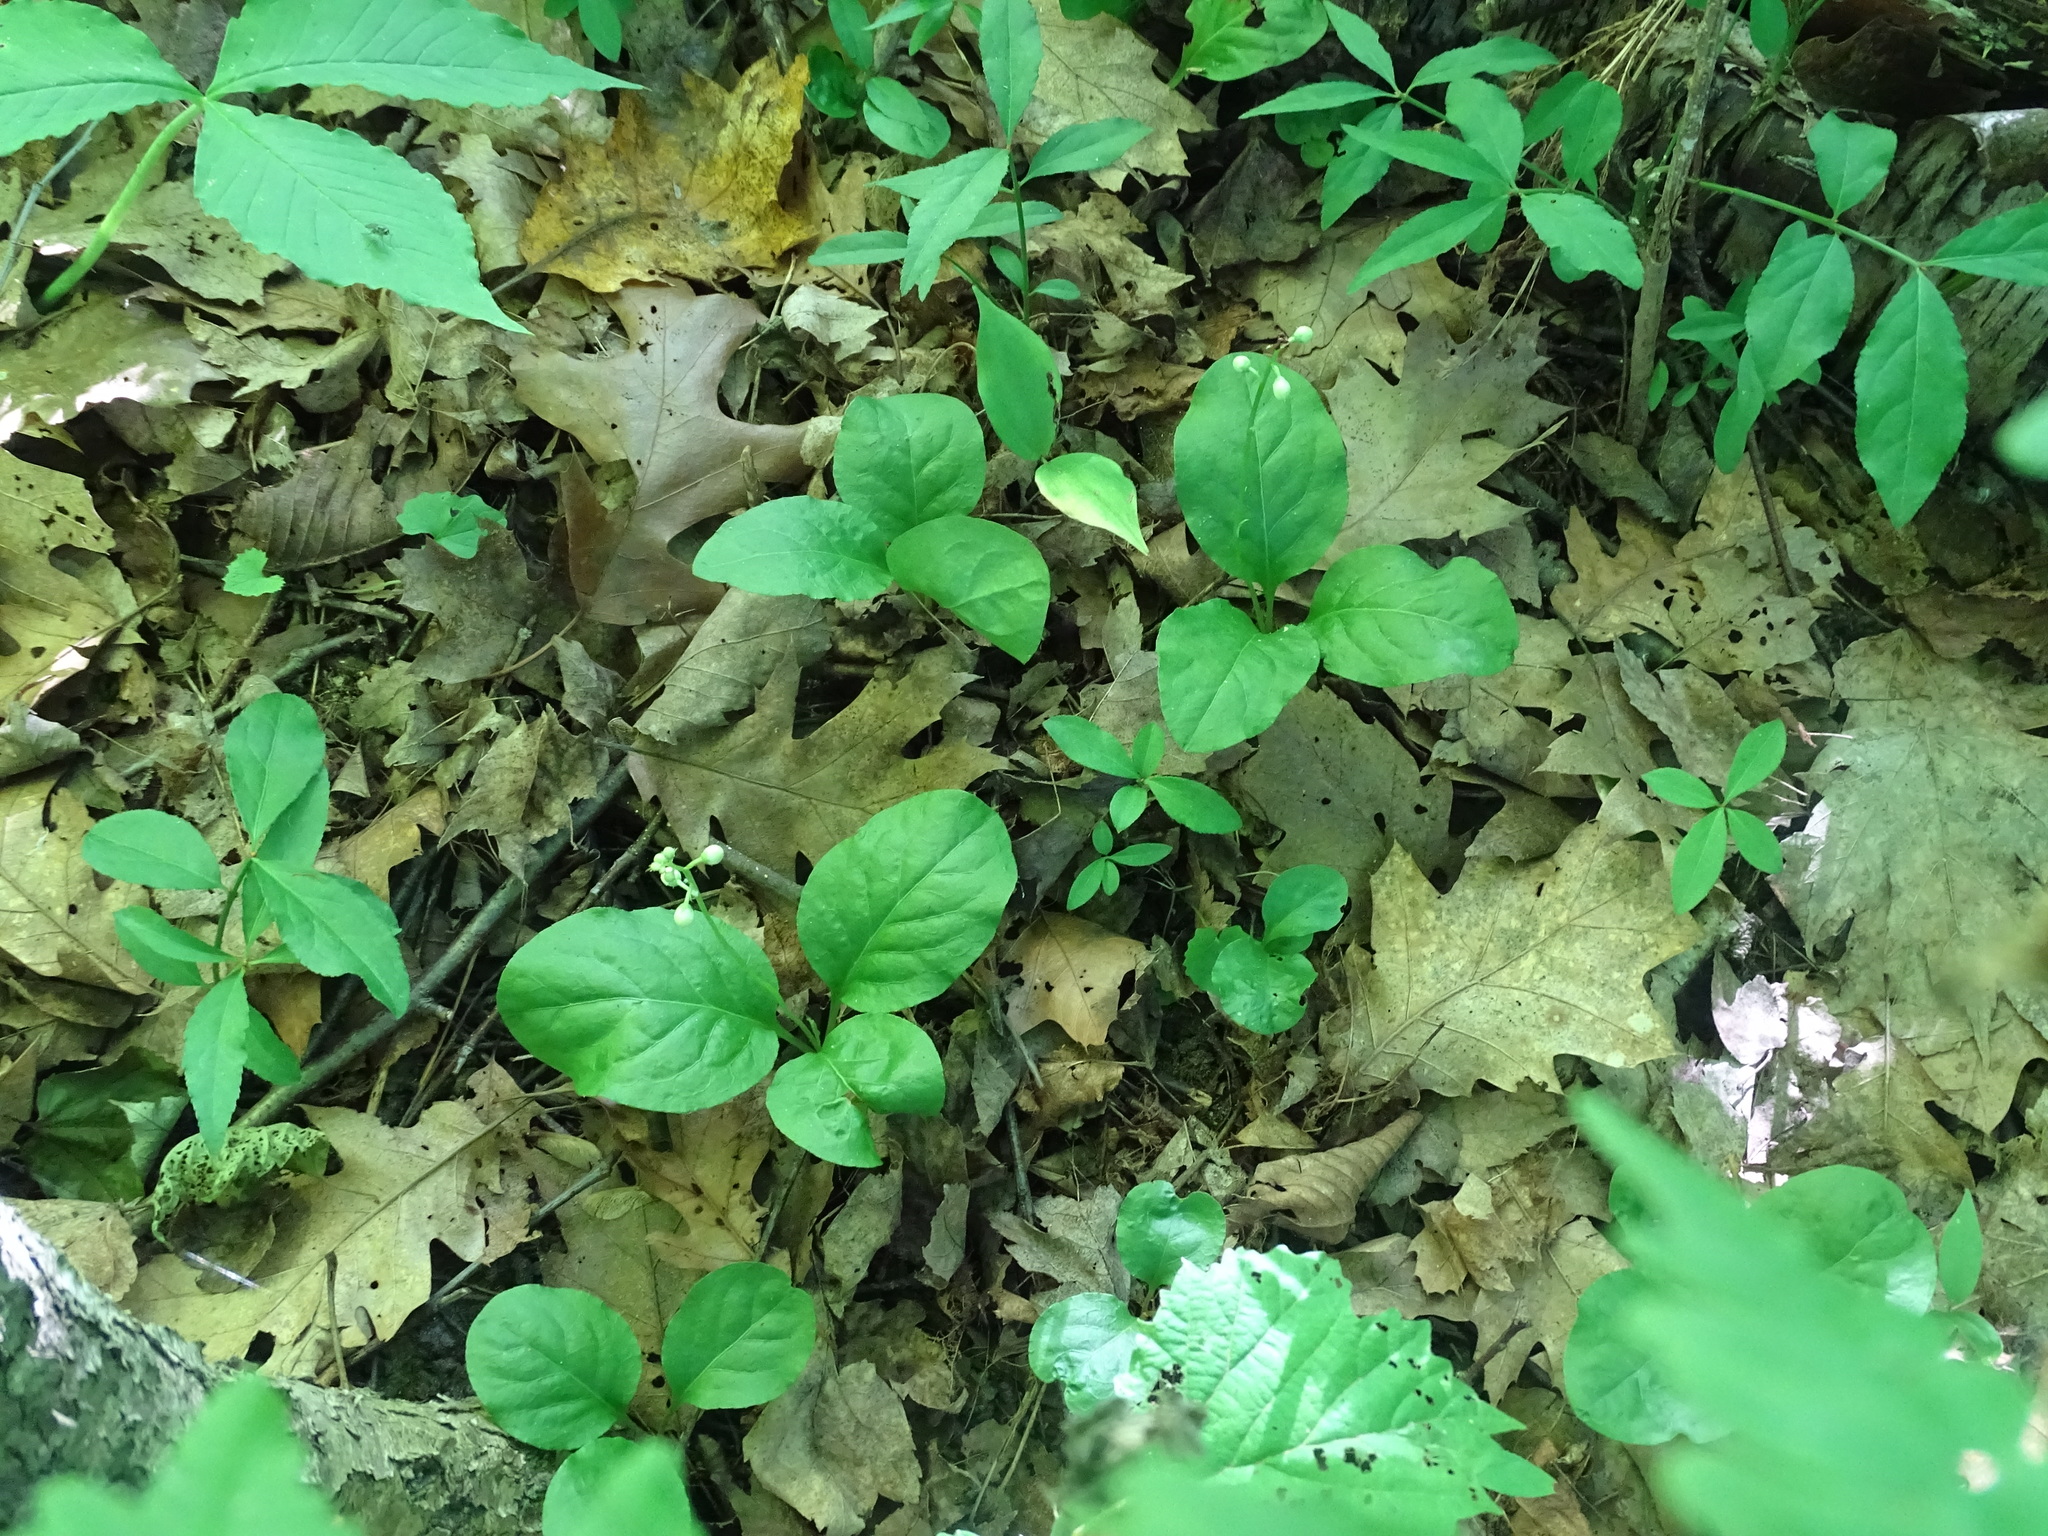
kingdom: Plantae
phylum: Tracheophyta
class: Magnoliopsida
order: Ericales
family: Ericaceae
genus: Pyrola
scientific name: Pyrola elliptica
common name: Shinleaf
